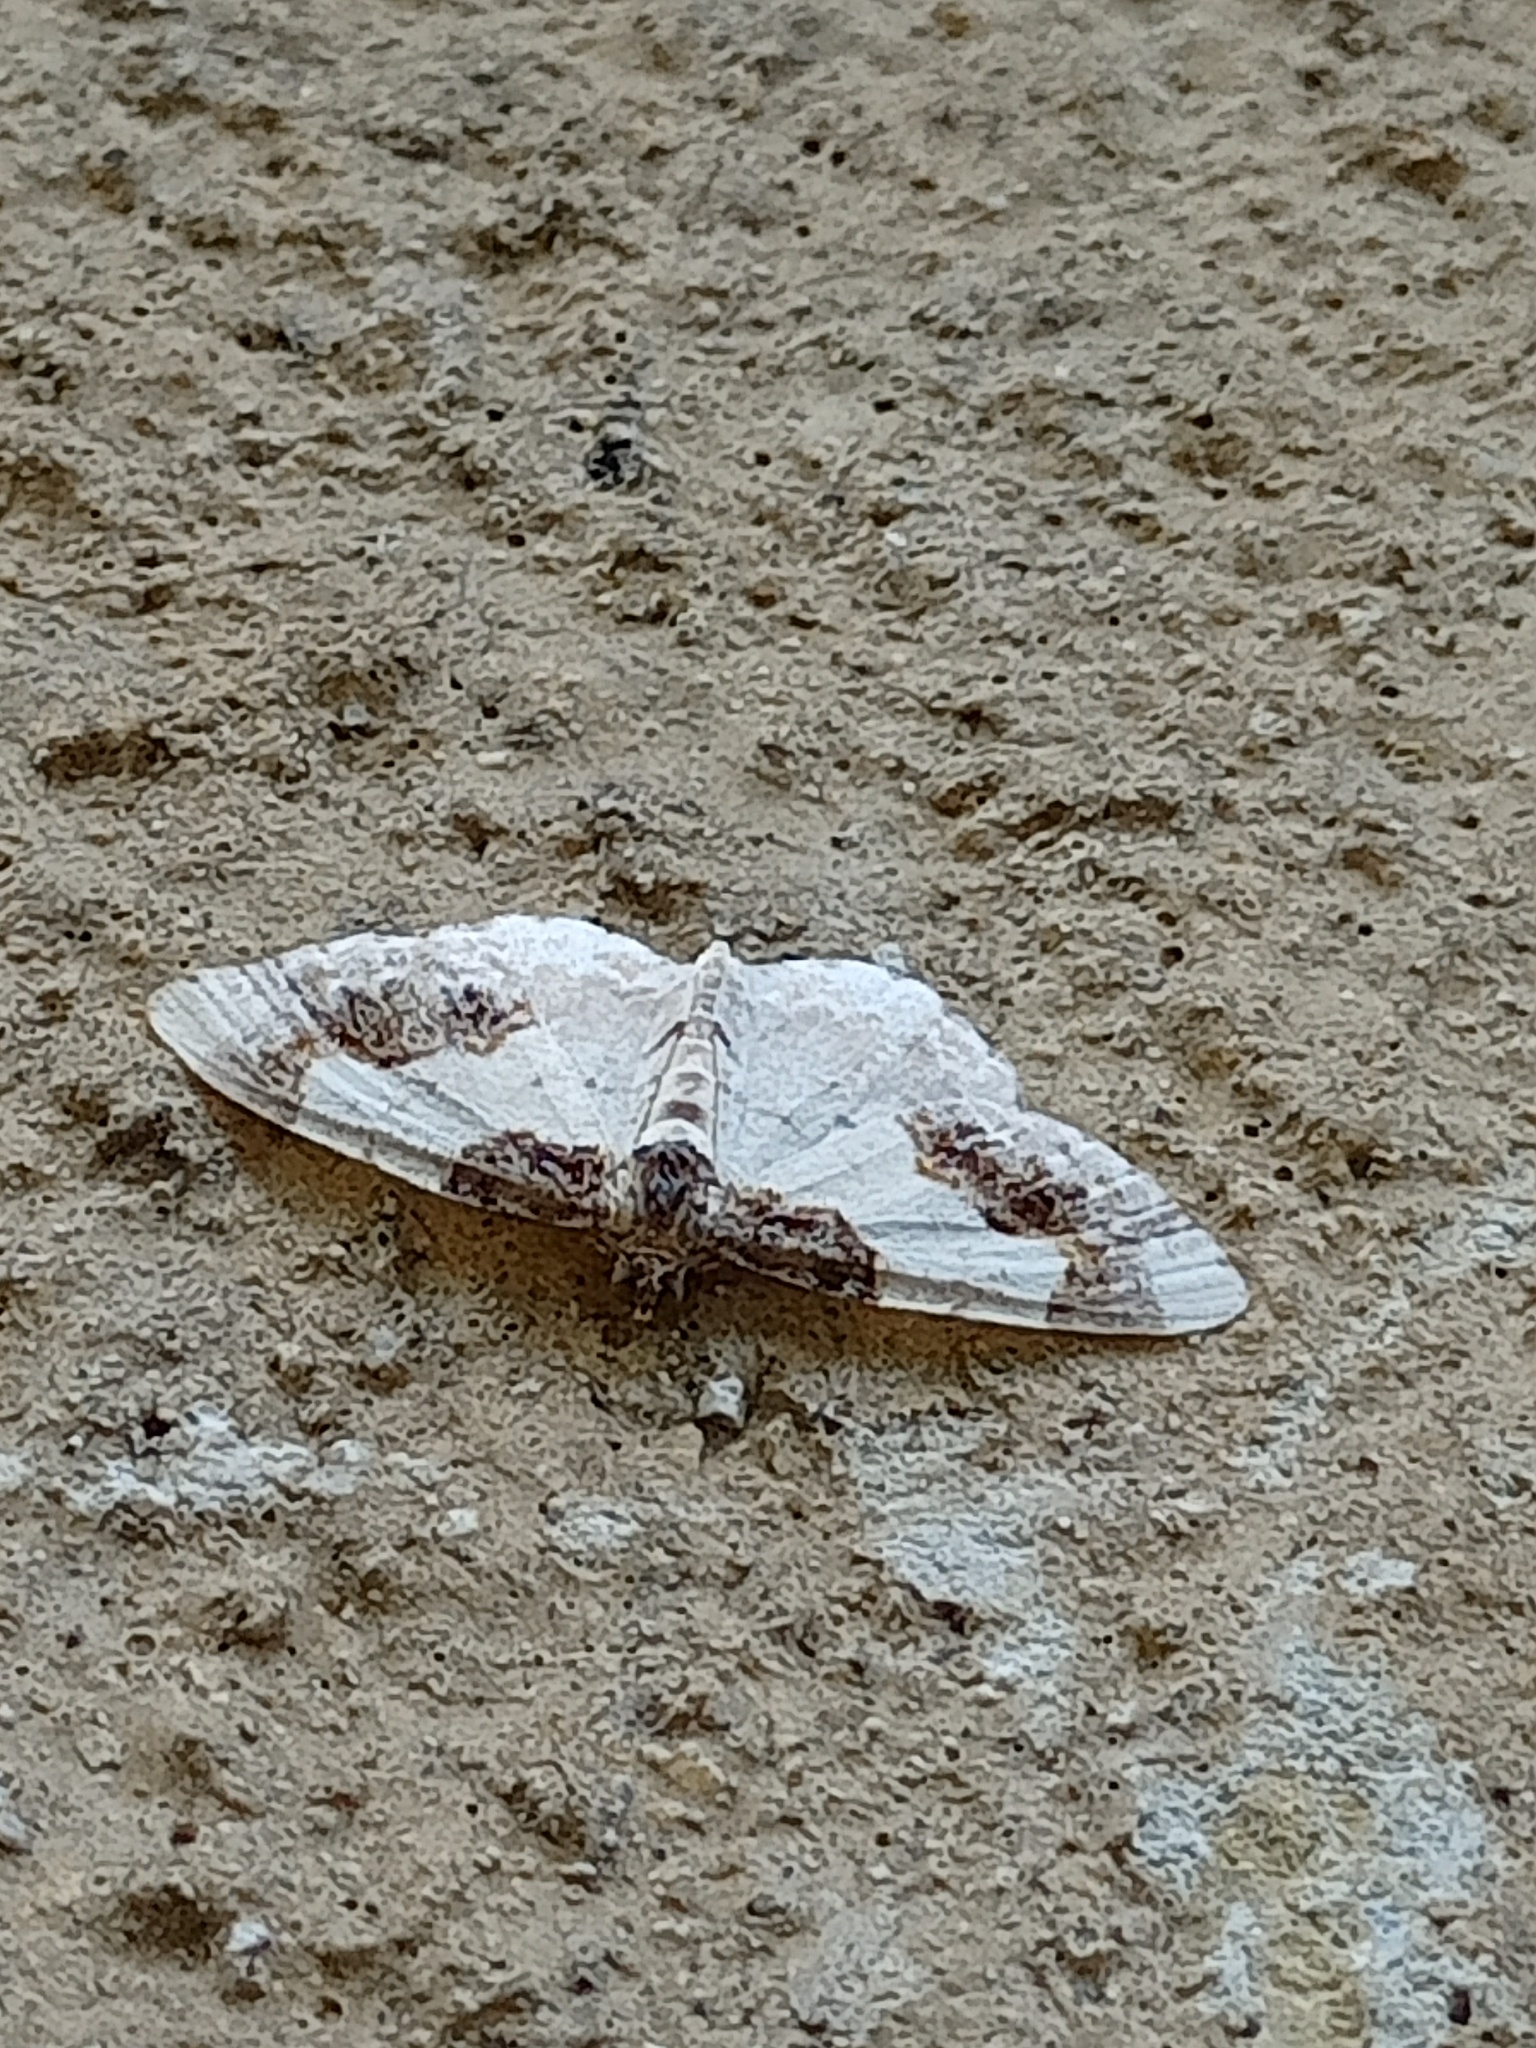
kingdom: Animalia
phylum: Arthropoda
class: Insecta
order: Lepidoptera
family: Geometridae
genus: Ligdia
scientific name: Ligdia adustata
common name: Scorched carpet
